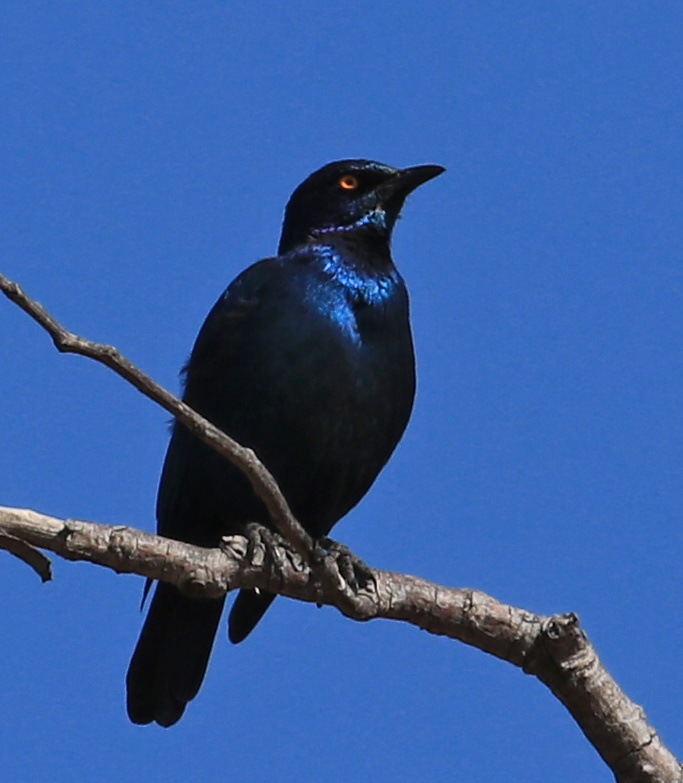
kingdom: Animalia
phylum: Chordata
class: Aves
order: Passeriformes
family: Sturnidae
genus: Lamprotornis
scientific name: Lamprotornis nitens
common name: Cape starling
